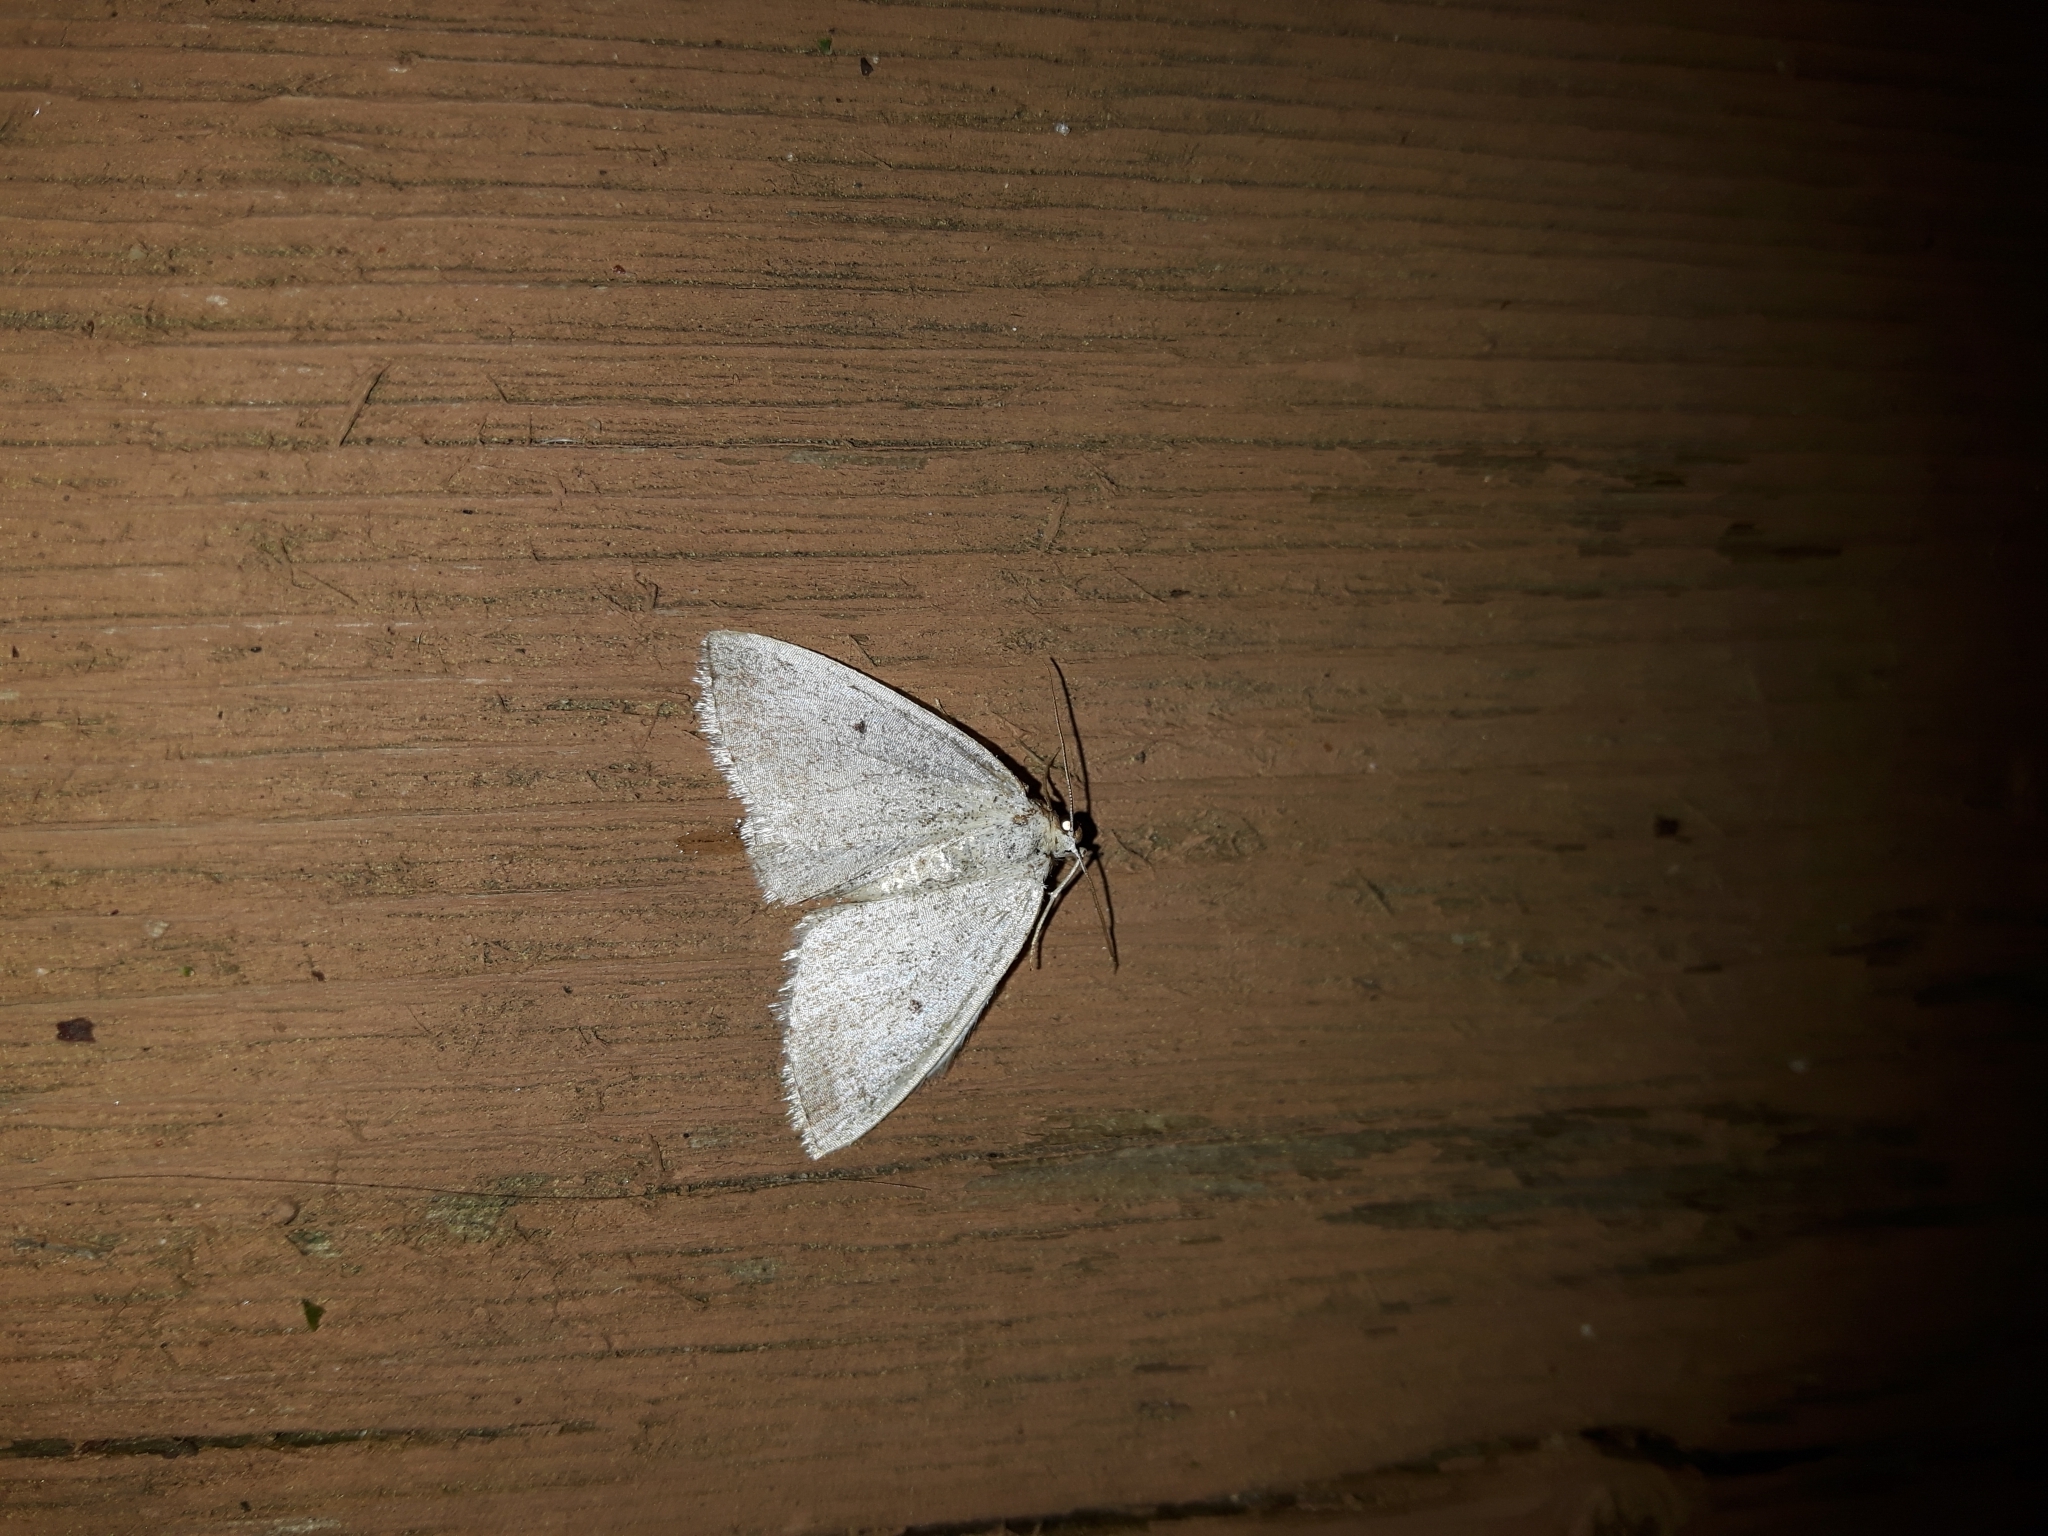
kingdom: Animalia
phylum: Arthropoda
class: Insecta
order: Lepidoptera
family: Geometridae
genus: Lomographa
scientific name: Lomographa glomeraria
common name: Gray spring moth
